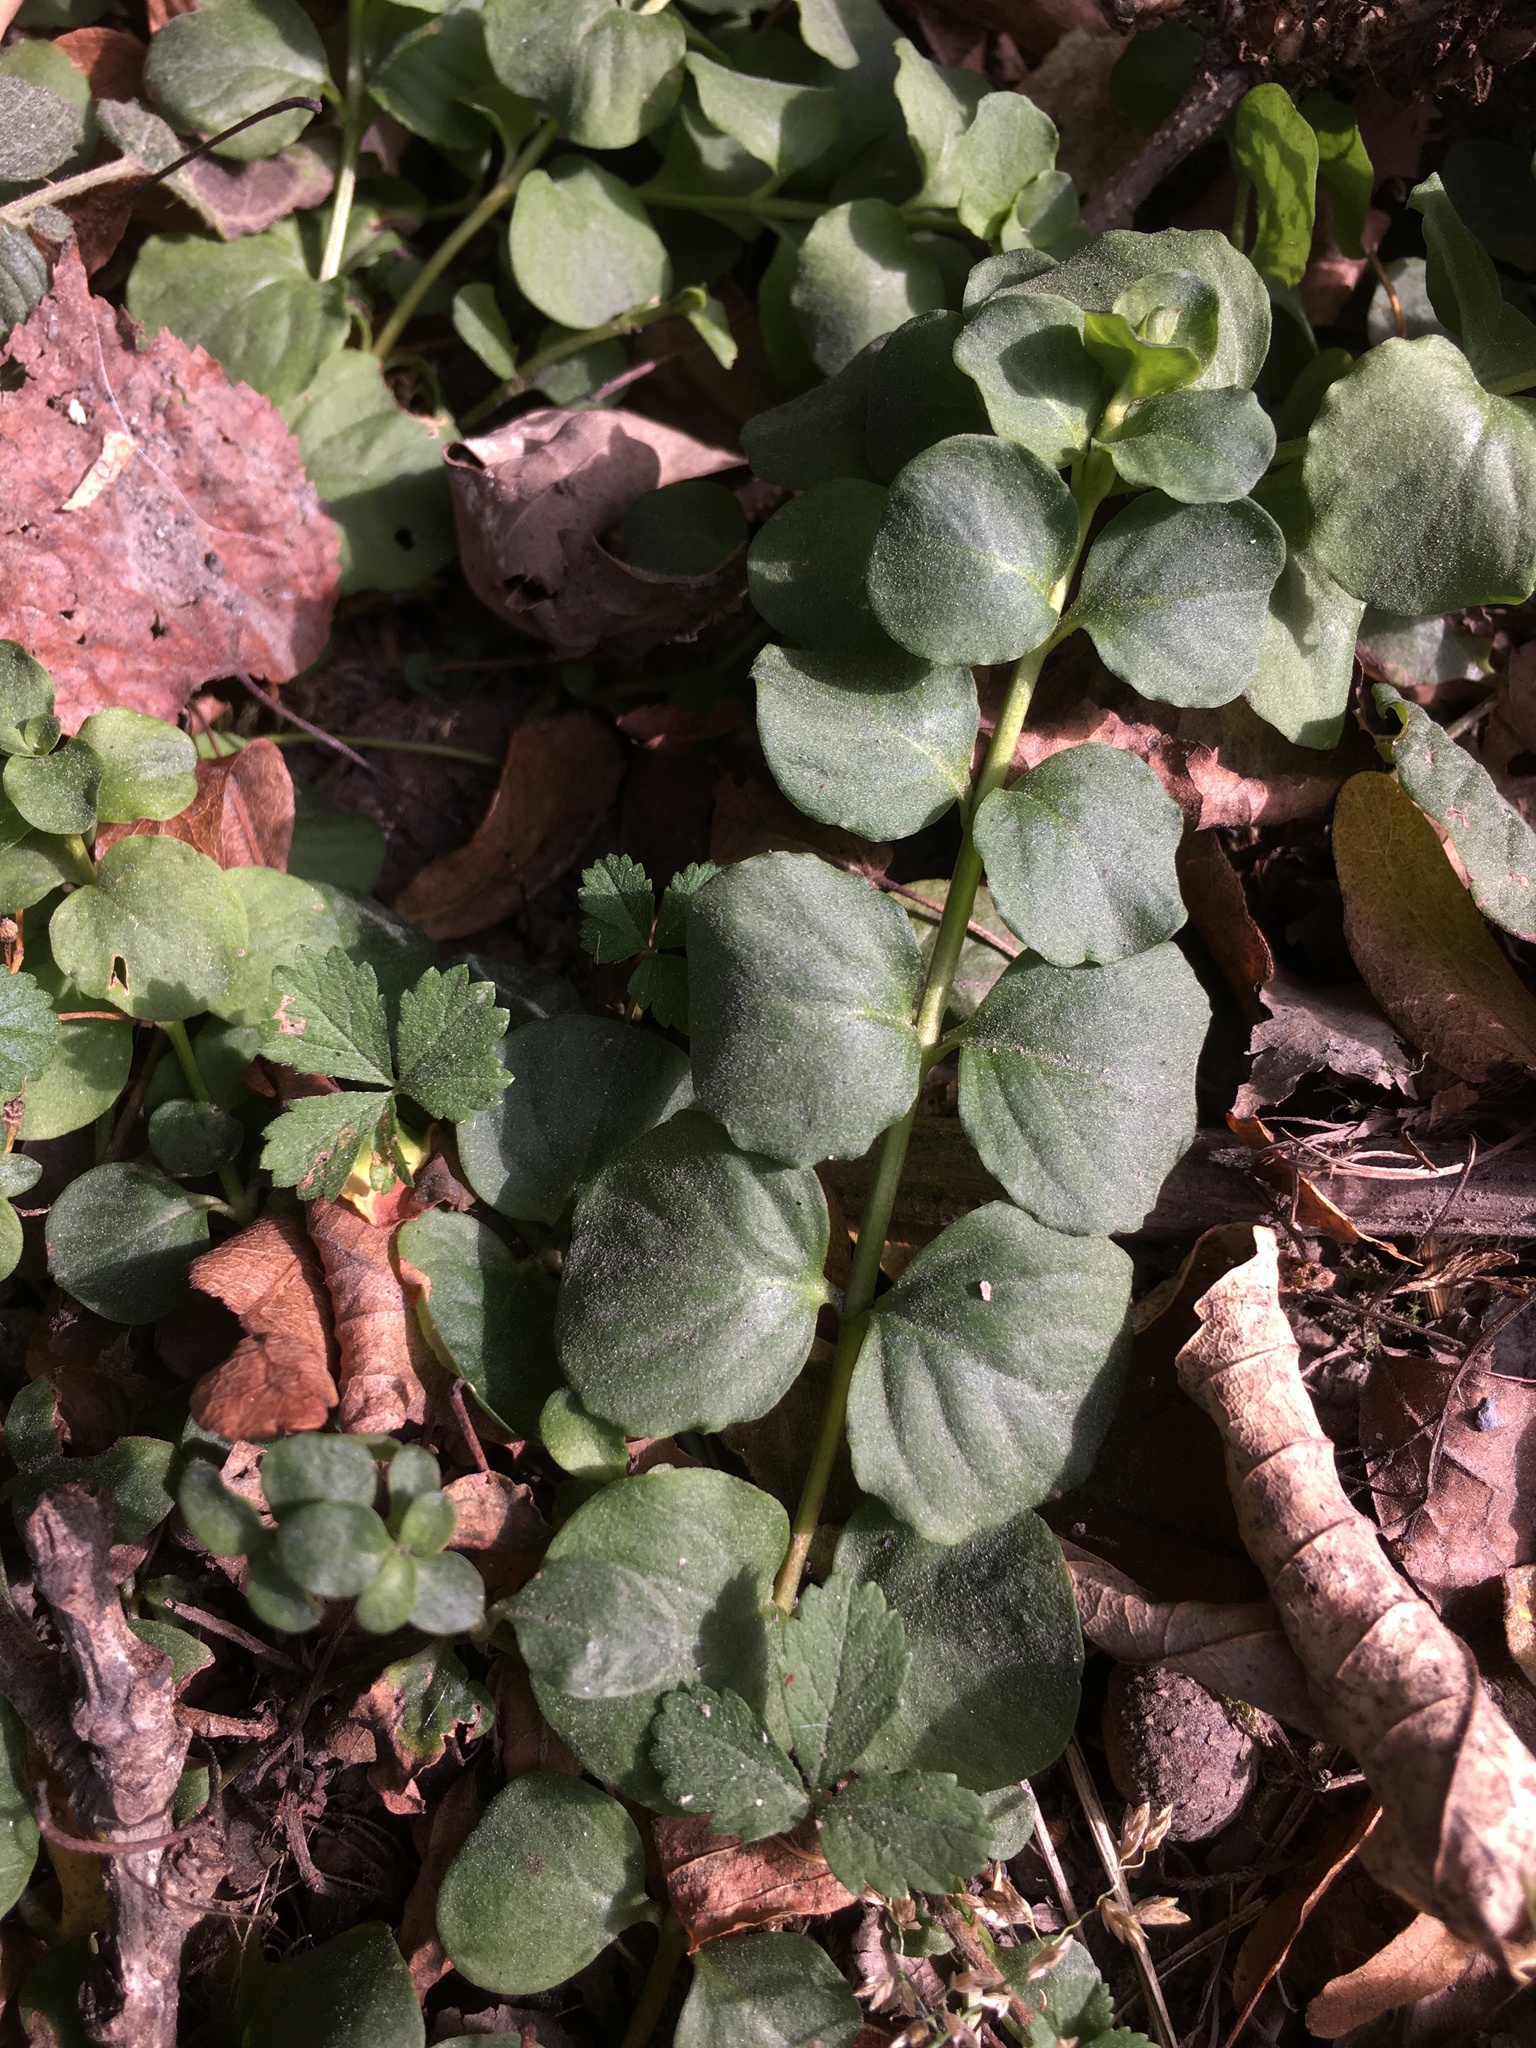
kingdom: Plantae
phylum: Tracheophyta
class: Magnoliopsida
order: Ericales
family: Primulaceae
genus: Lysimachia
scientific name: Lysimachia nummularia
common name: Moneywort
